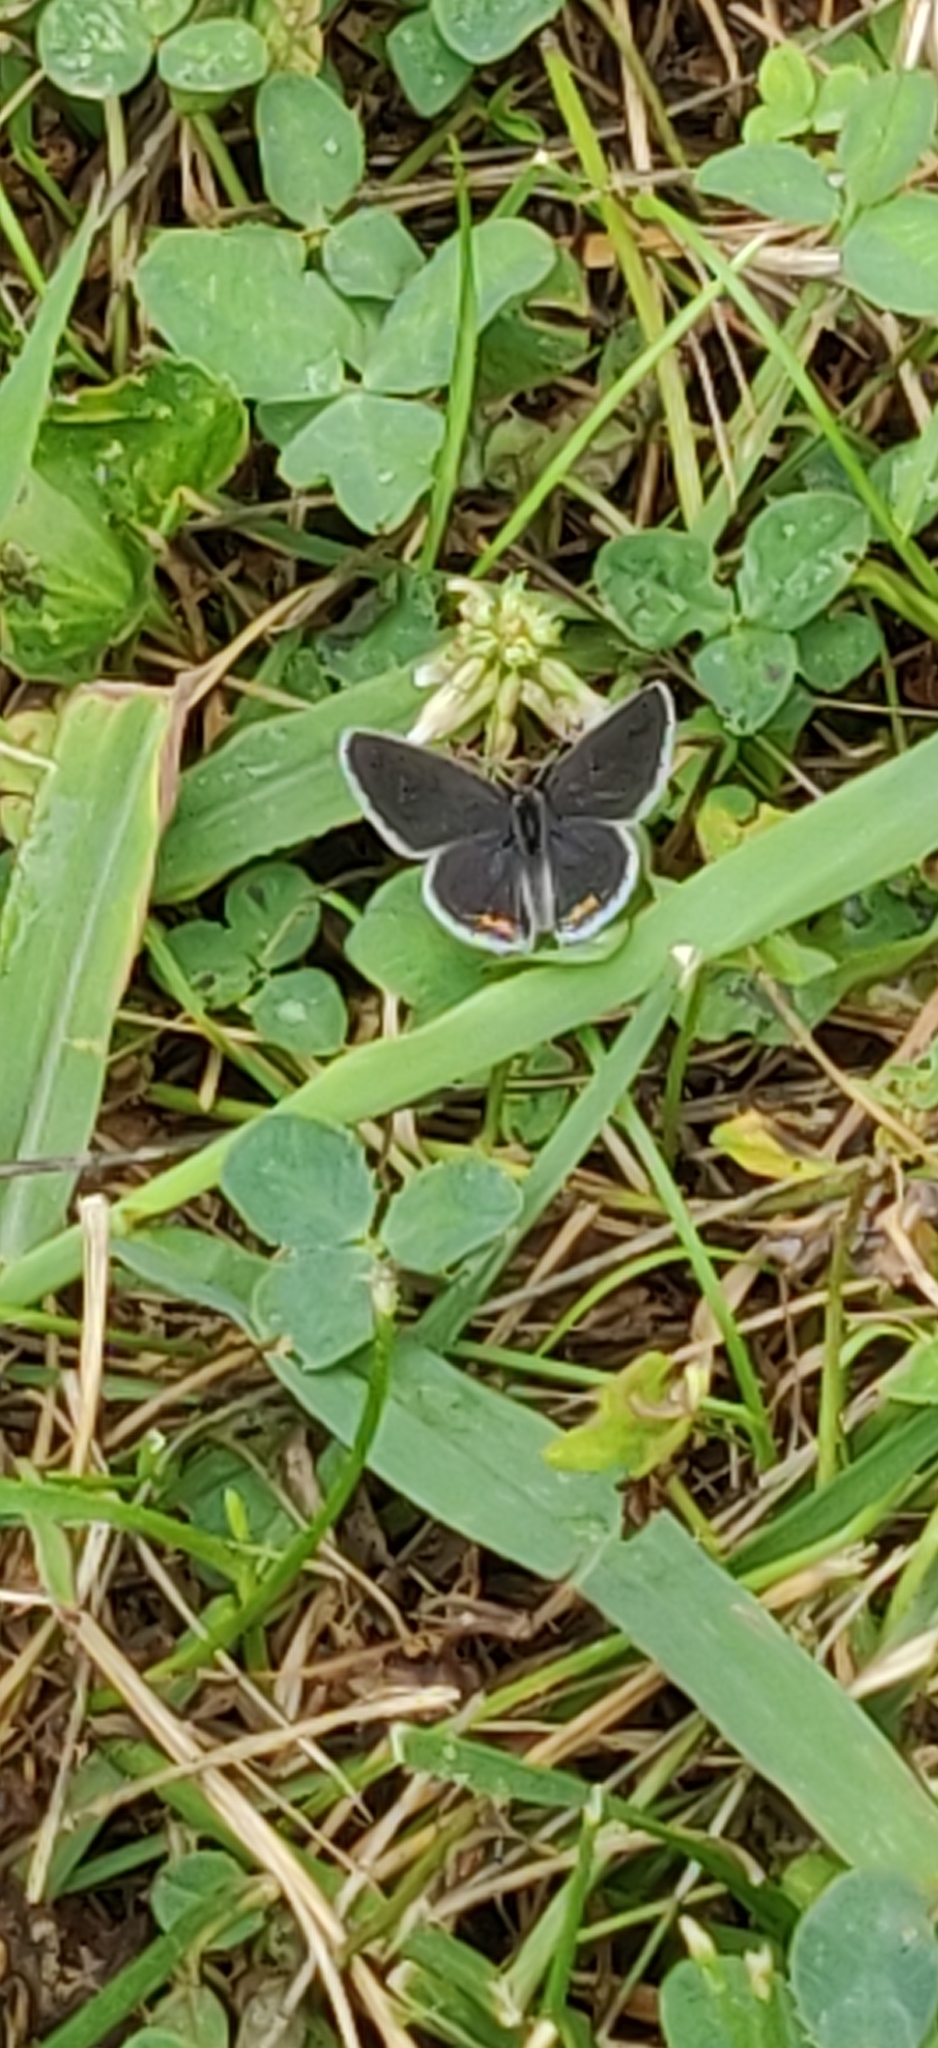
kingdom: Animalia
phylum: Arthropoda
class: Insecta
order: Lepidoptera
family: Lycaenidae
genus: Elkalyce
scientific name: Elkalyce comyntas
